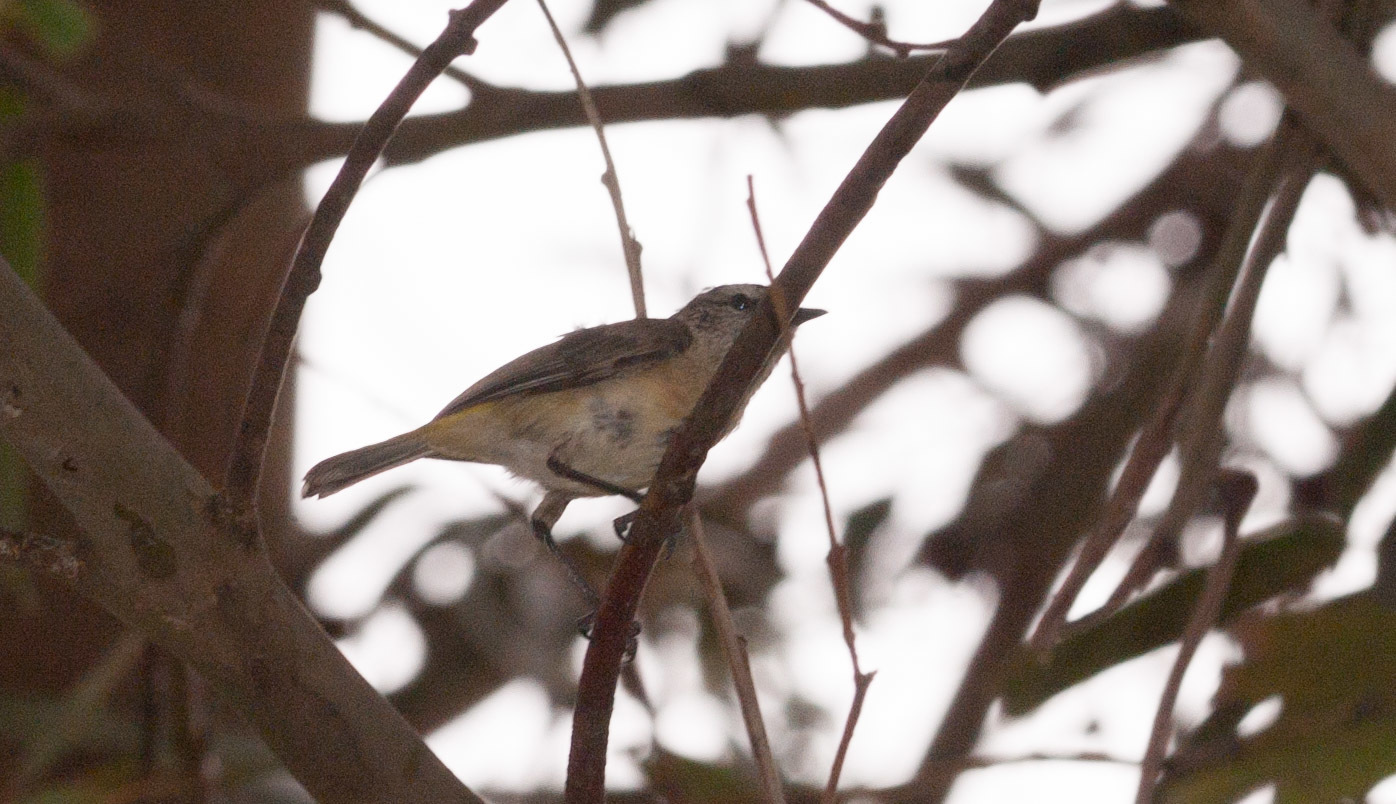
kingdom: Animalia
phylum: Chordata
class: Aves
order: Passeriformes
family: Acanthizidae
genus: Acanthiza
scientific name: Acanthiza chrysorrhoa
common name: Yellow-rumped thornbill
